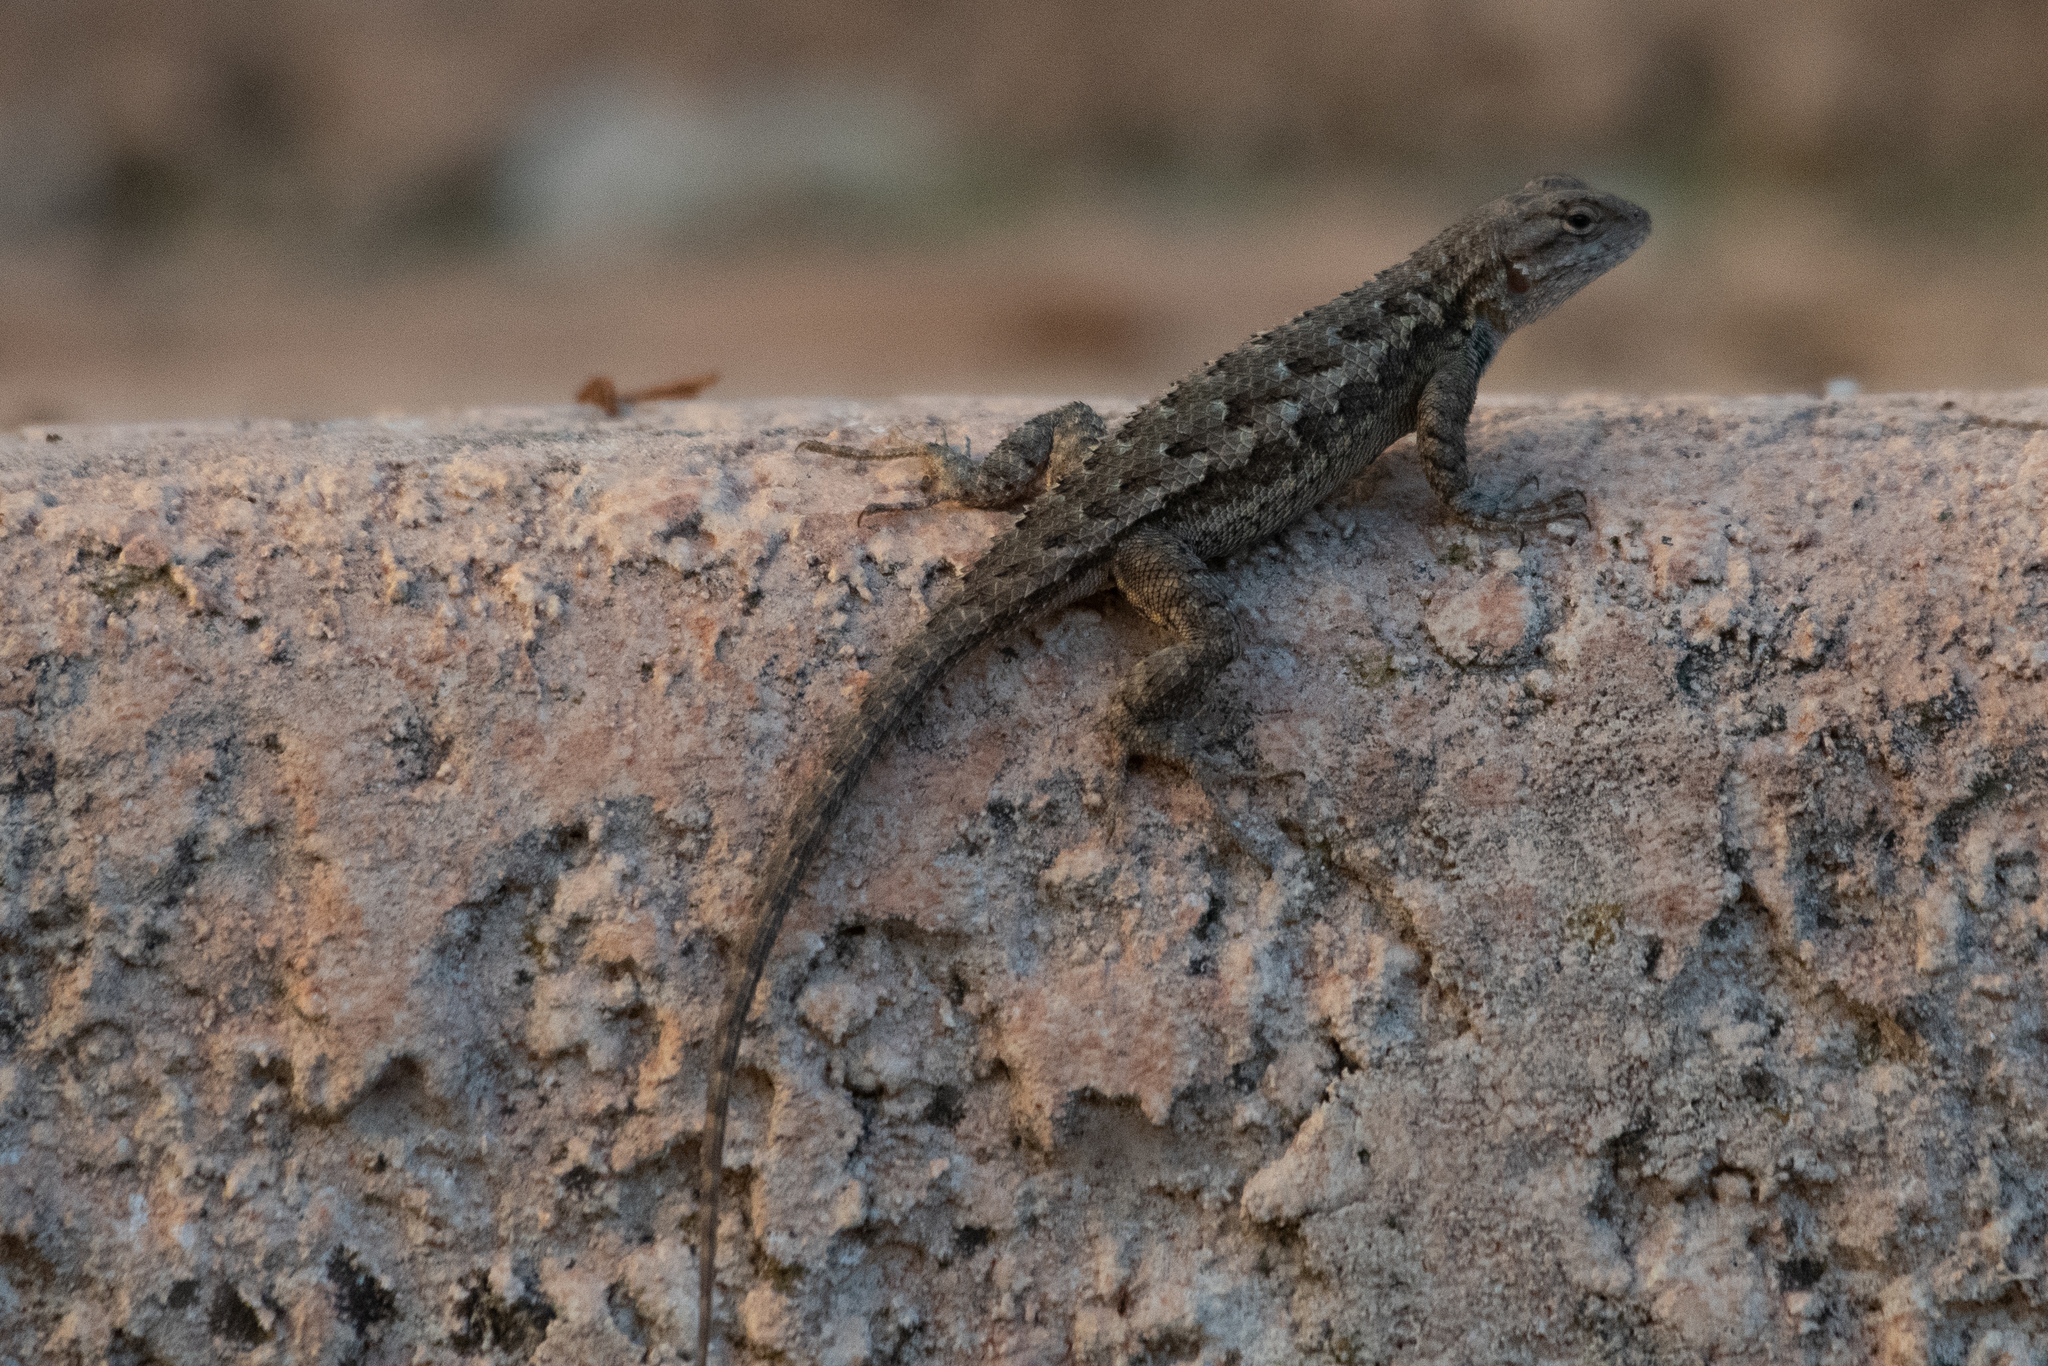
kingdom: Animalia
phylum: Chordata
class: Squamata
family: Phrynosomatidae
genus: Sceloporus
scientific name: Sceloporus occidentalis
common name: Western fence lizard
